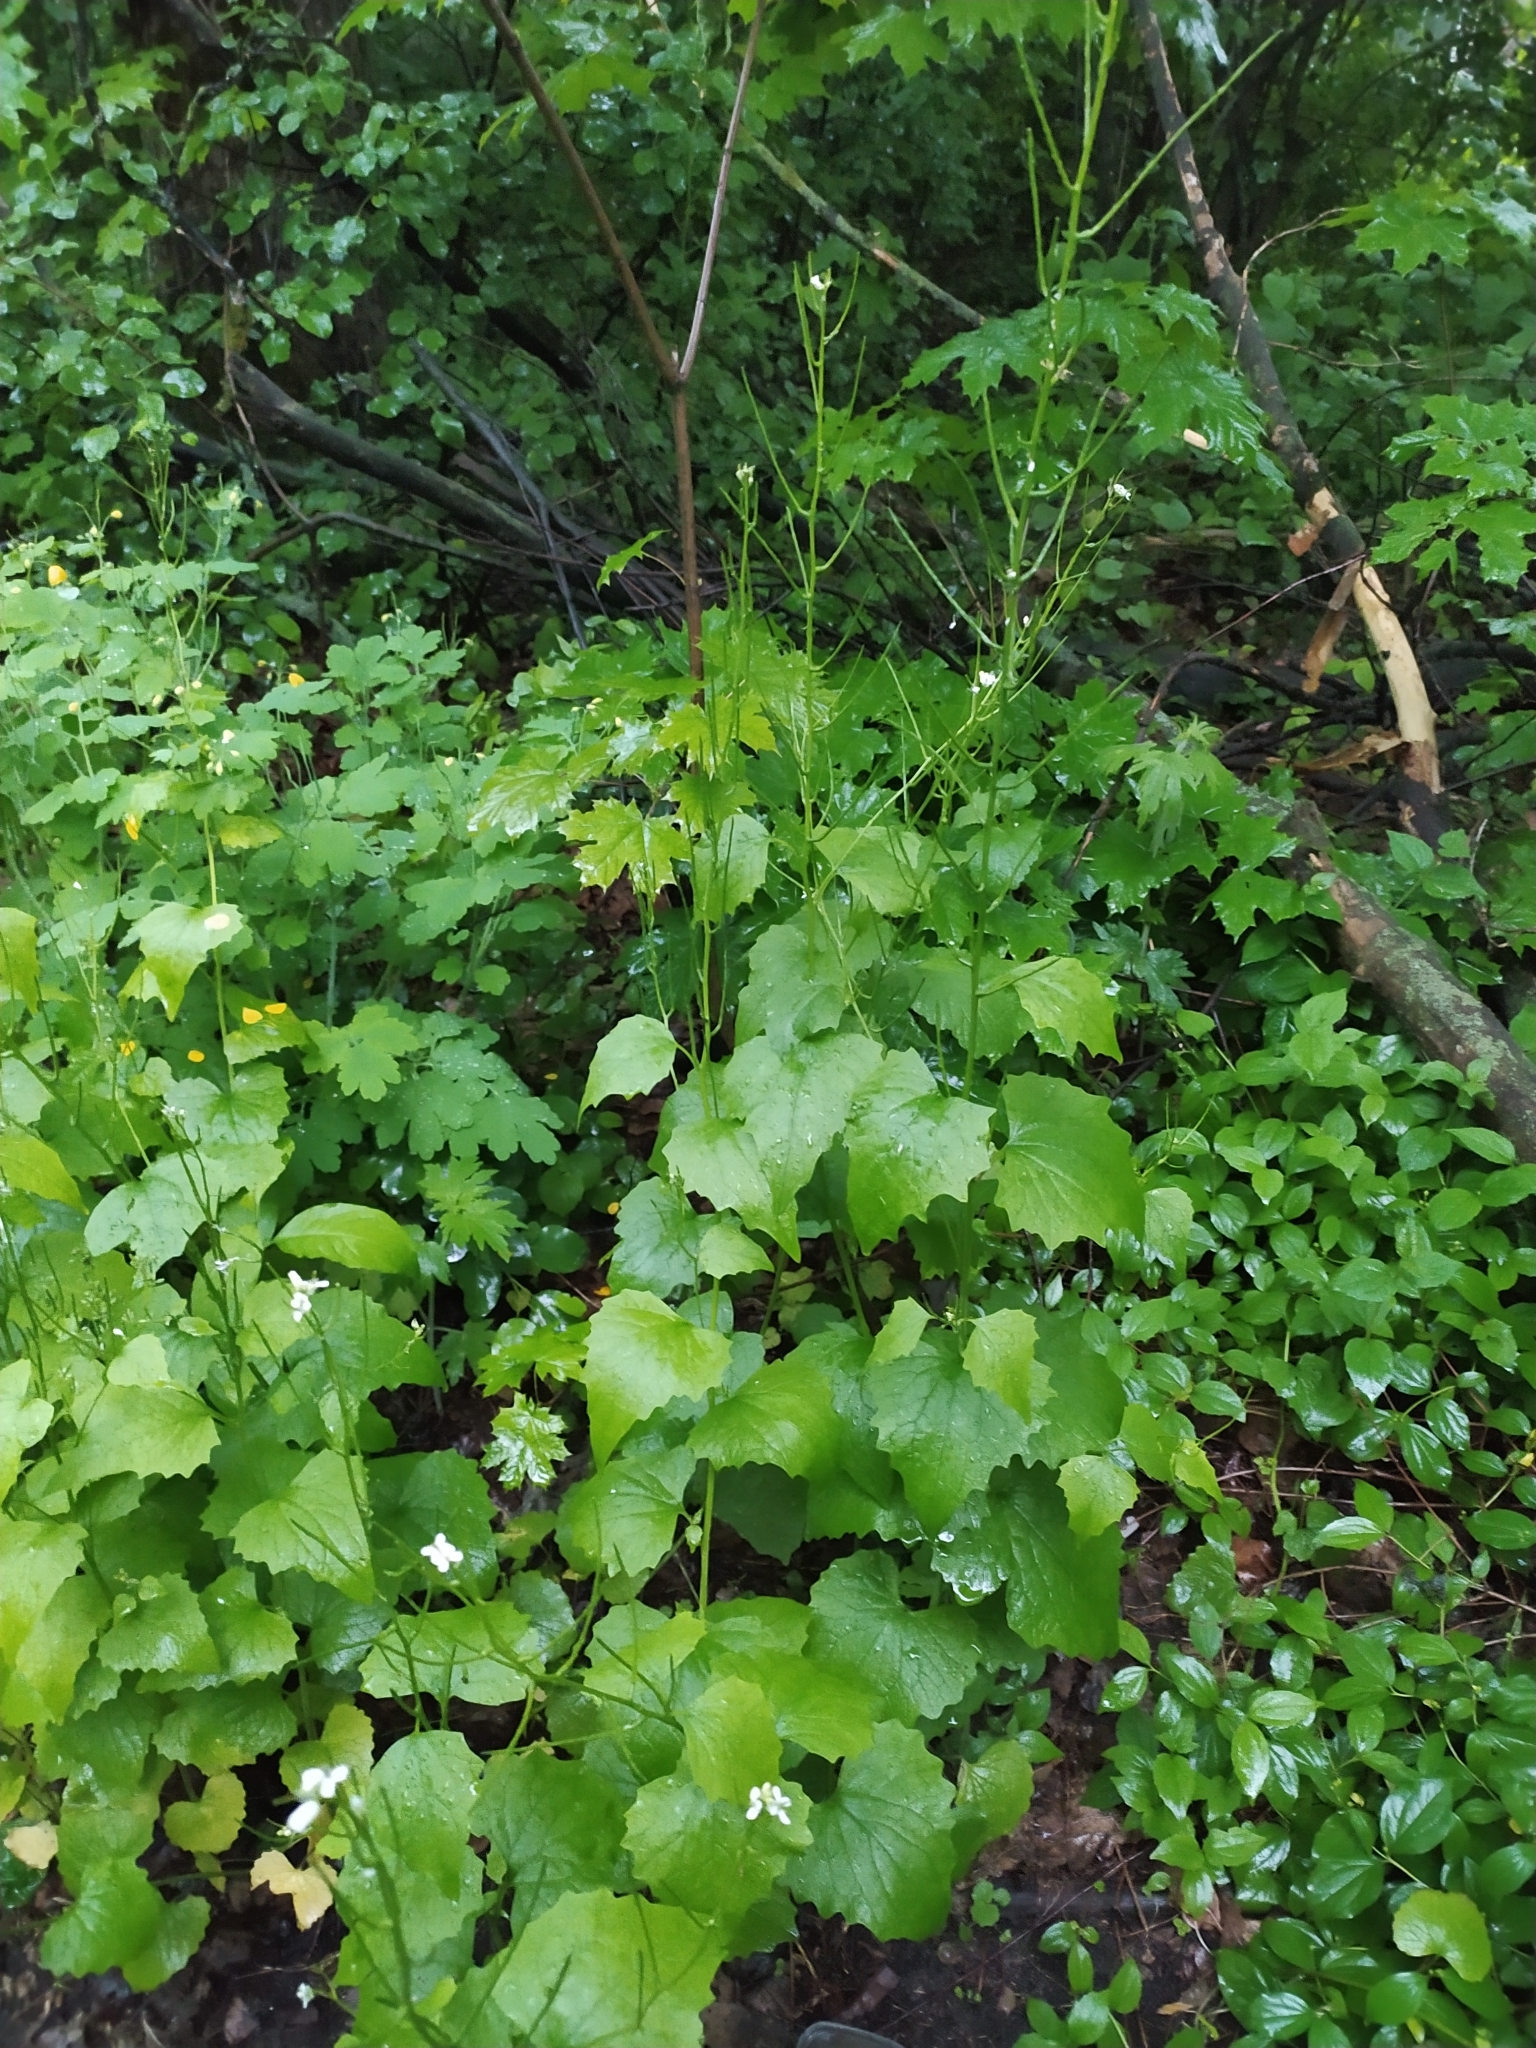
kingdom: Plantae
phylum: Tracheophyta
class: Magnoliopsida
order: Brassicales
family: Brassicaceae
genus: Alliaria
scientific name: Alliaria petiolata
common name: Garlic mustard
